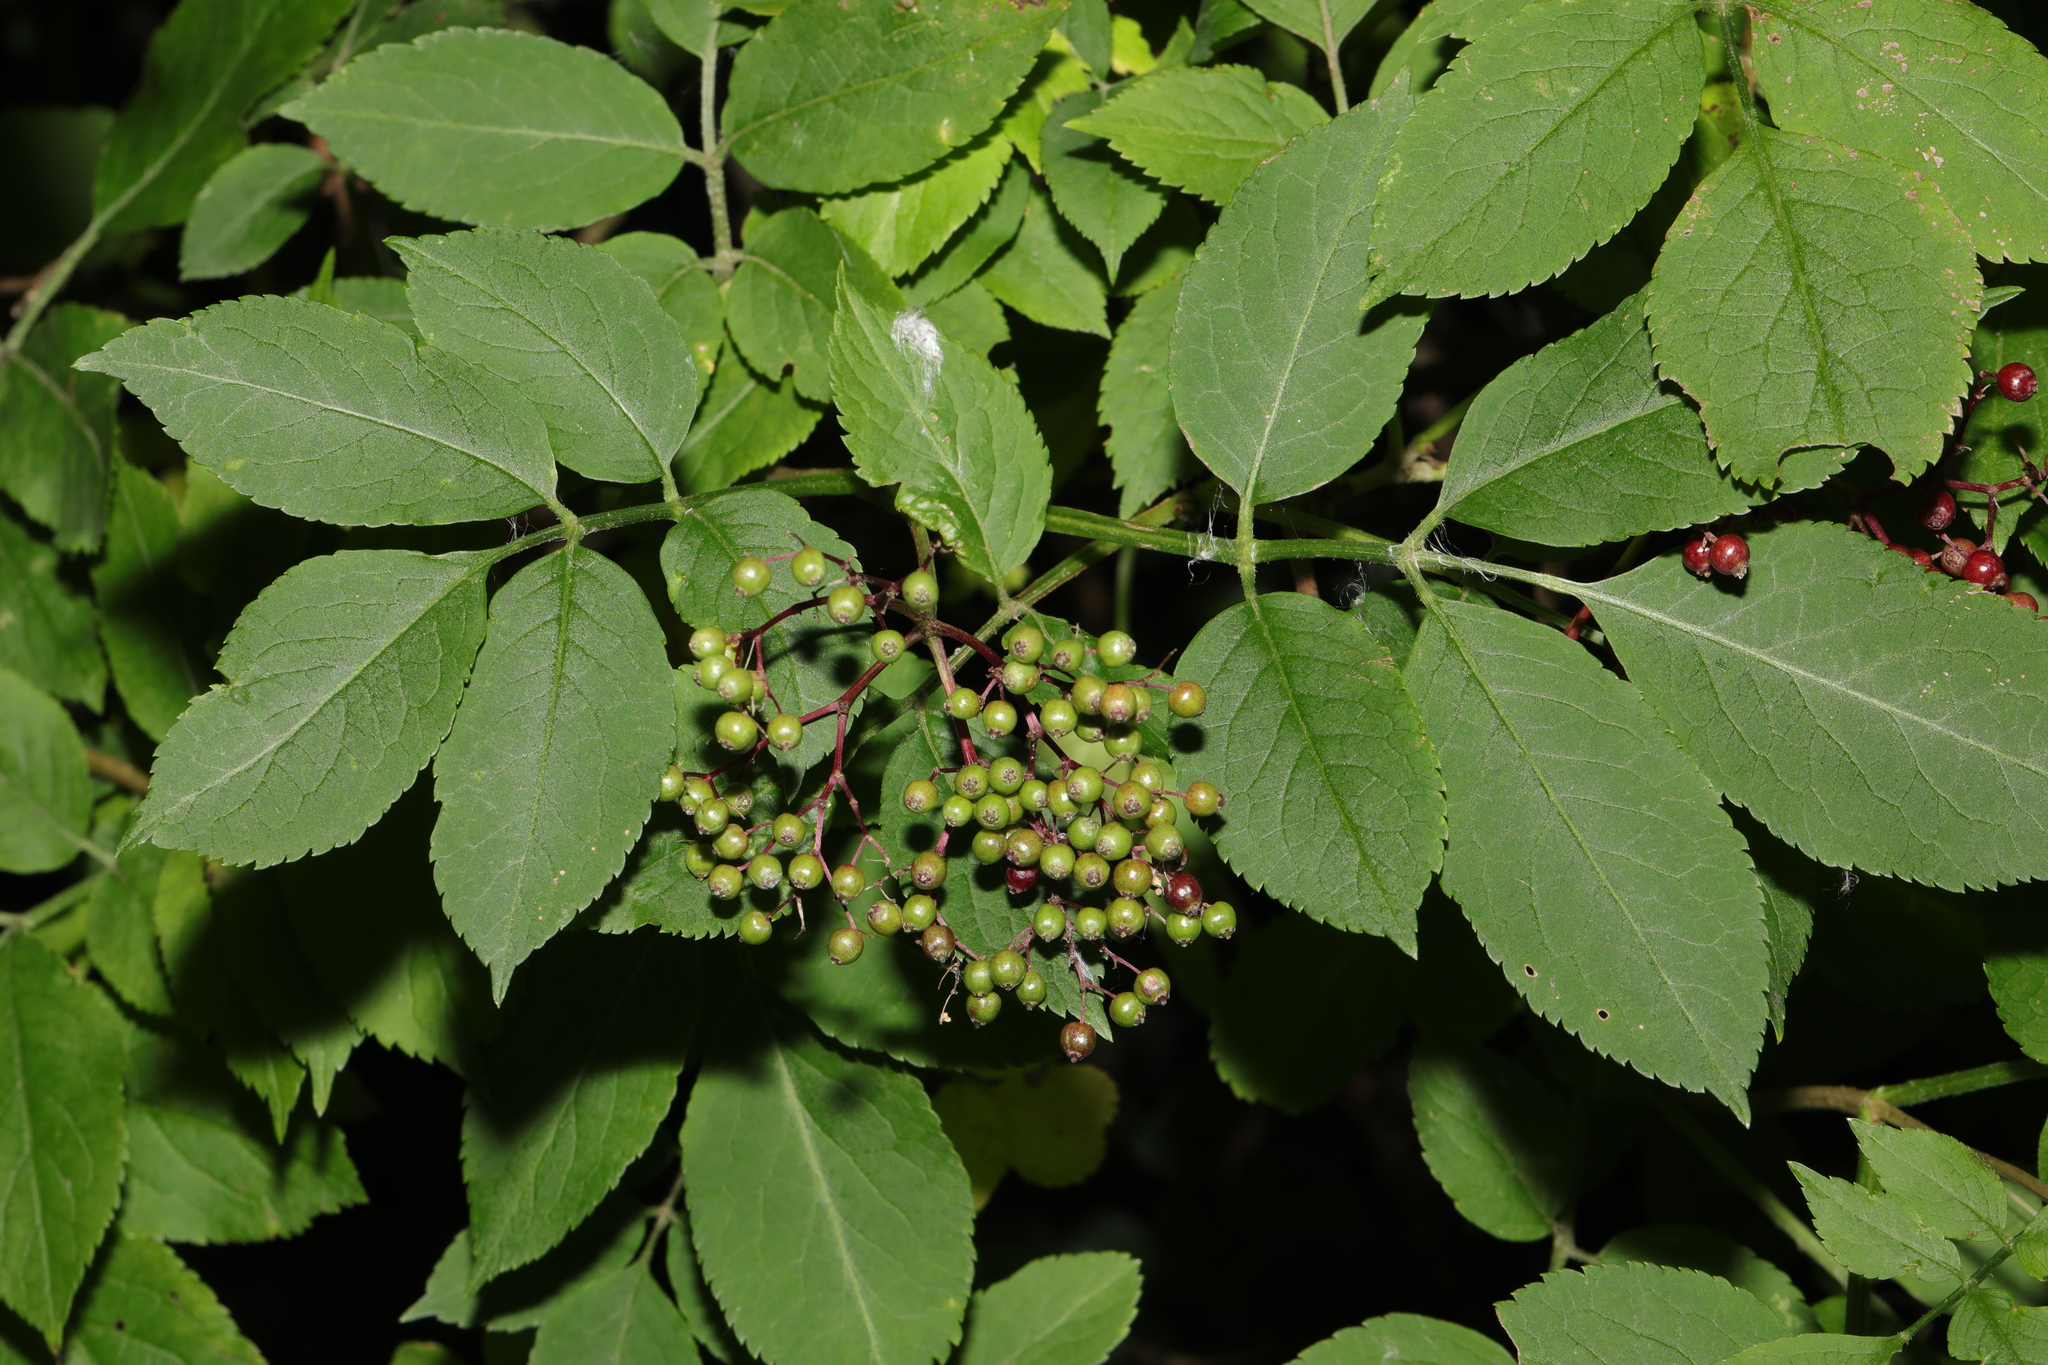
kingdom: Plantae
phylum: Tracheophyta
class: Magnoliopsida
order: Dipsacales
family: Viburnaceae
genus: Sambucus
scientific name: Sambucus nigra
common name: Elder
